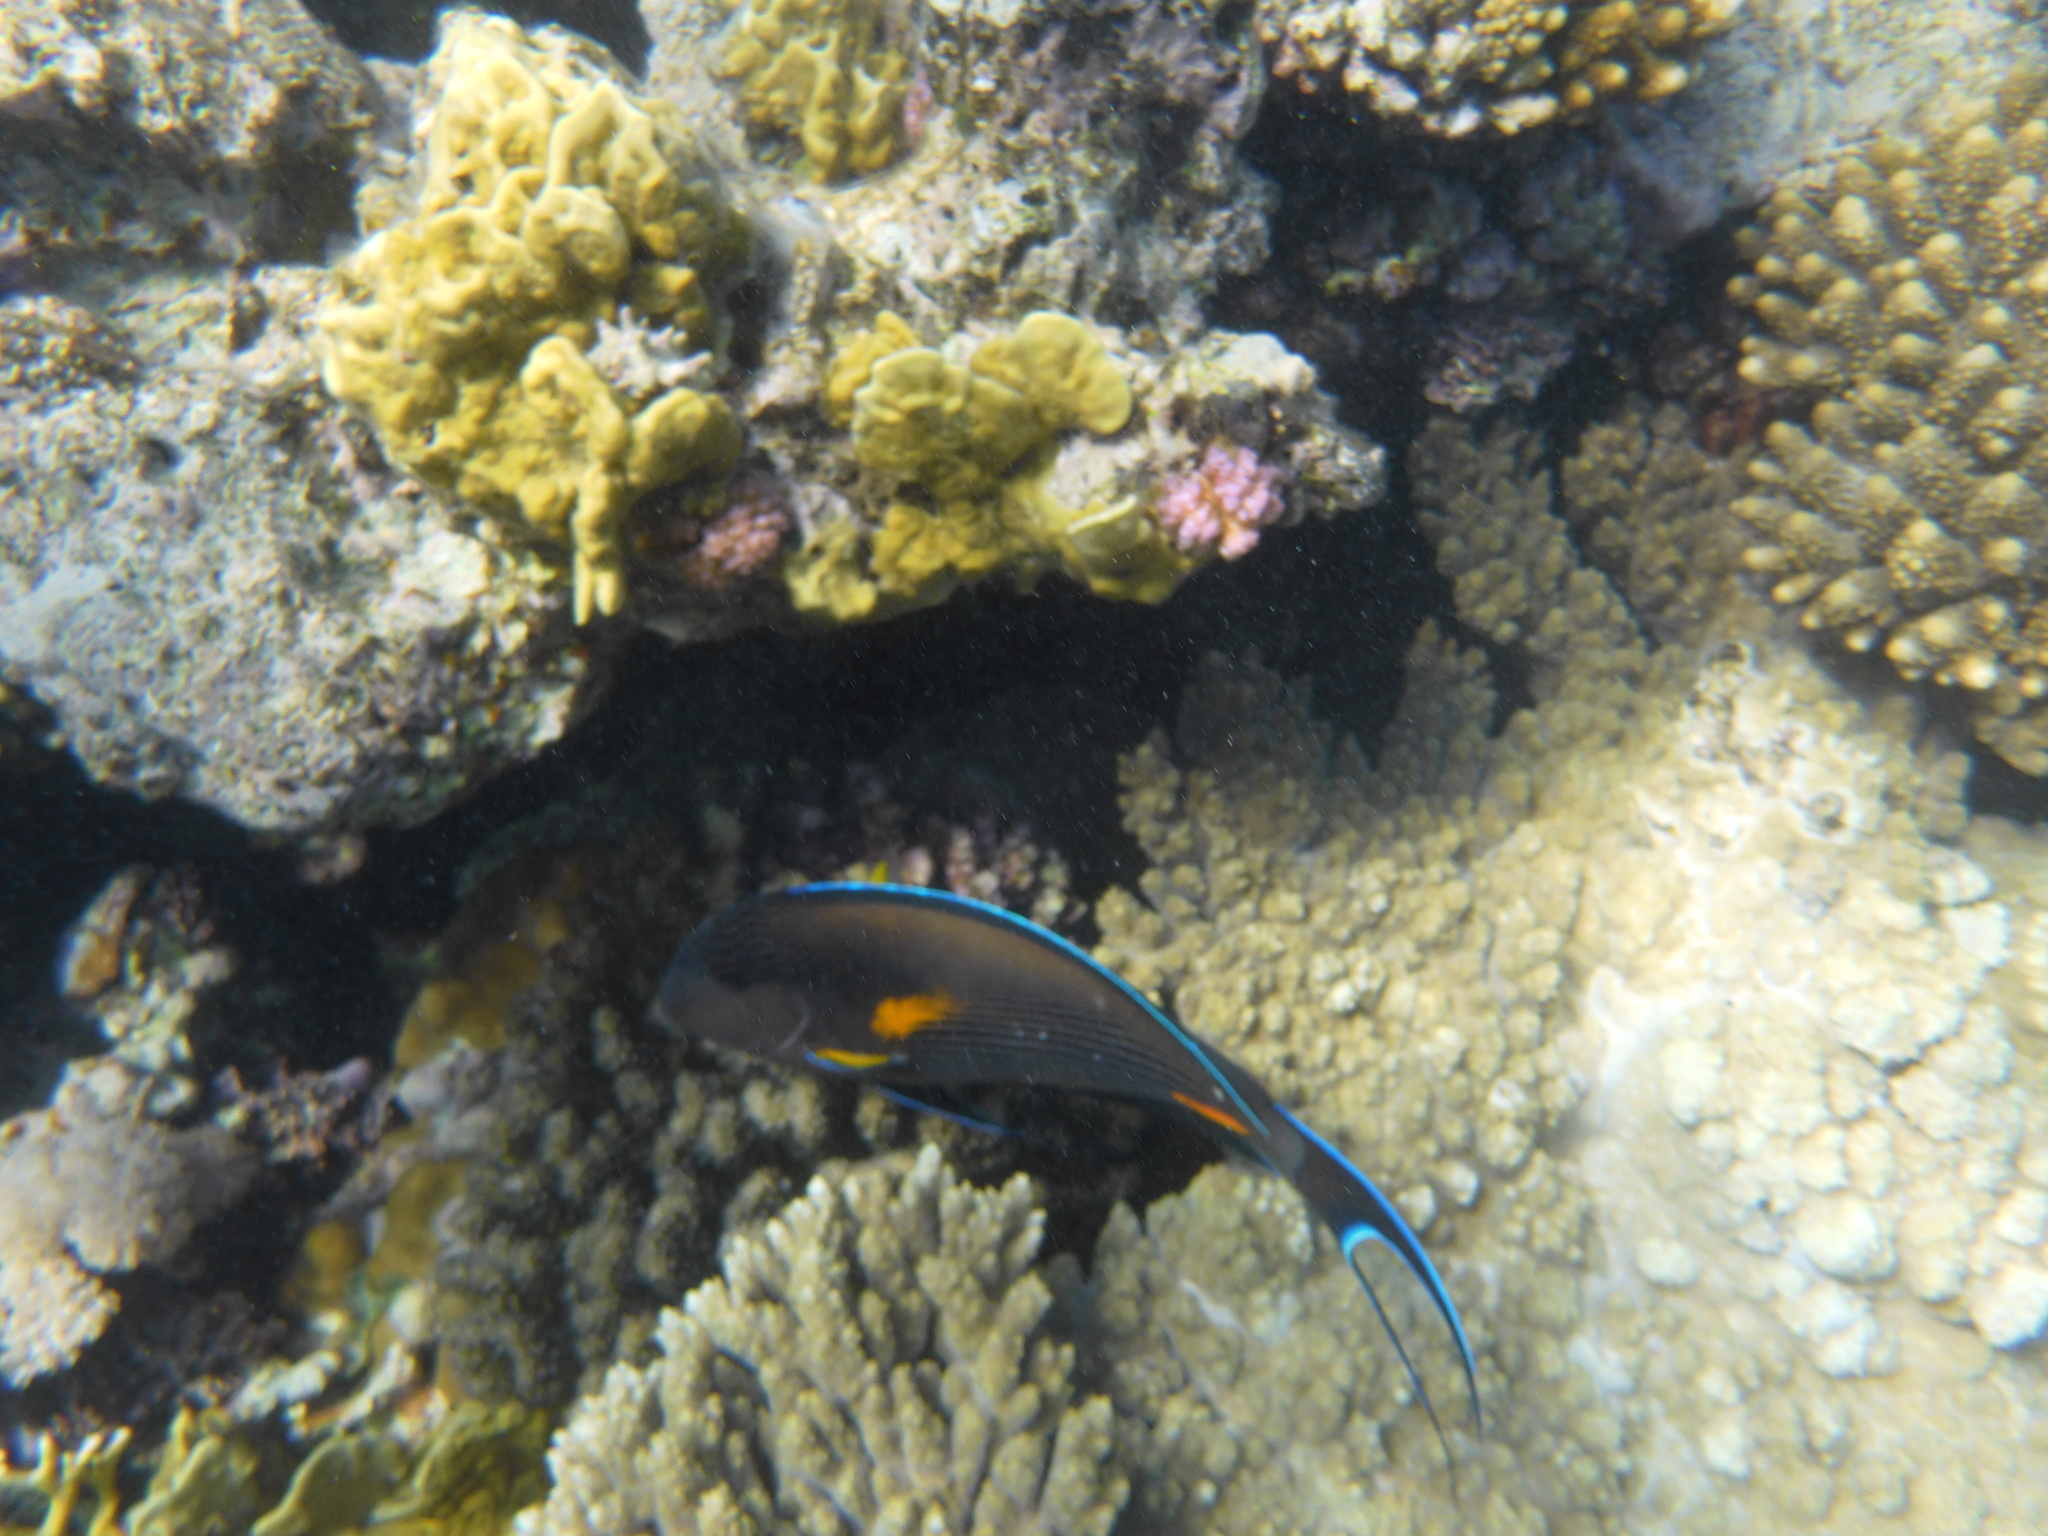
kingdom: Animalia
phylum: Chordata
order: Perciformes
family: Acanthuridae
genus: Acanthurus
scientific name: Acanthurus sohal
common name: Red sea surgeonfish
